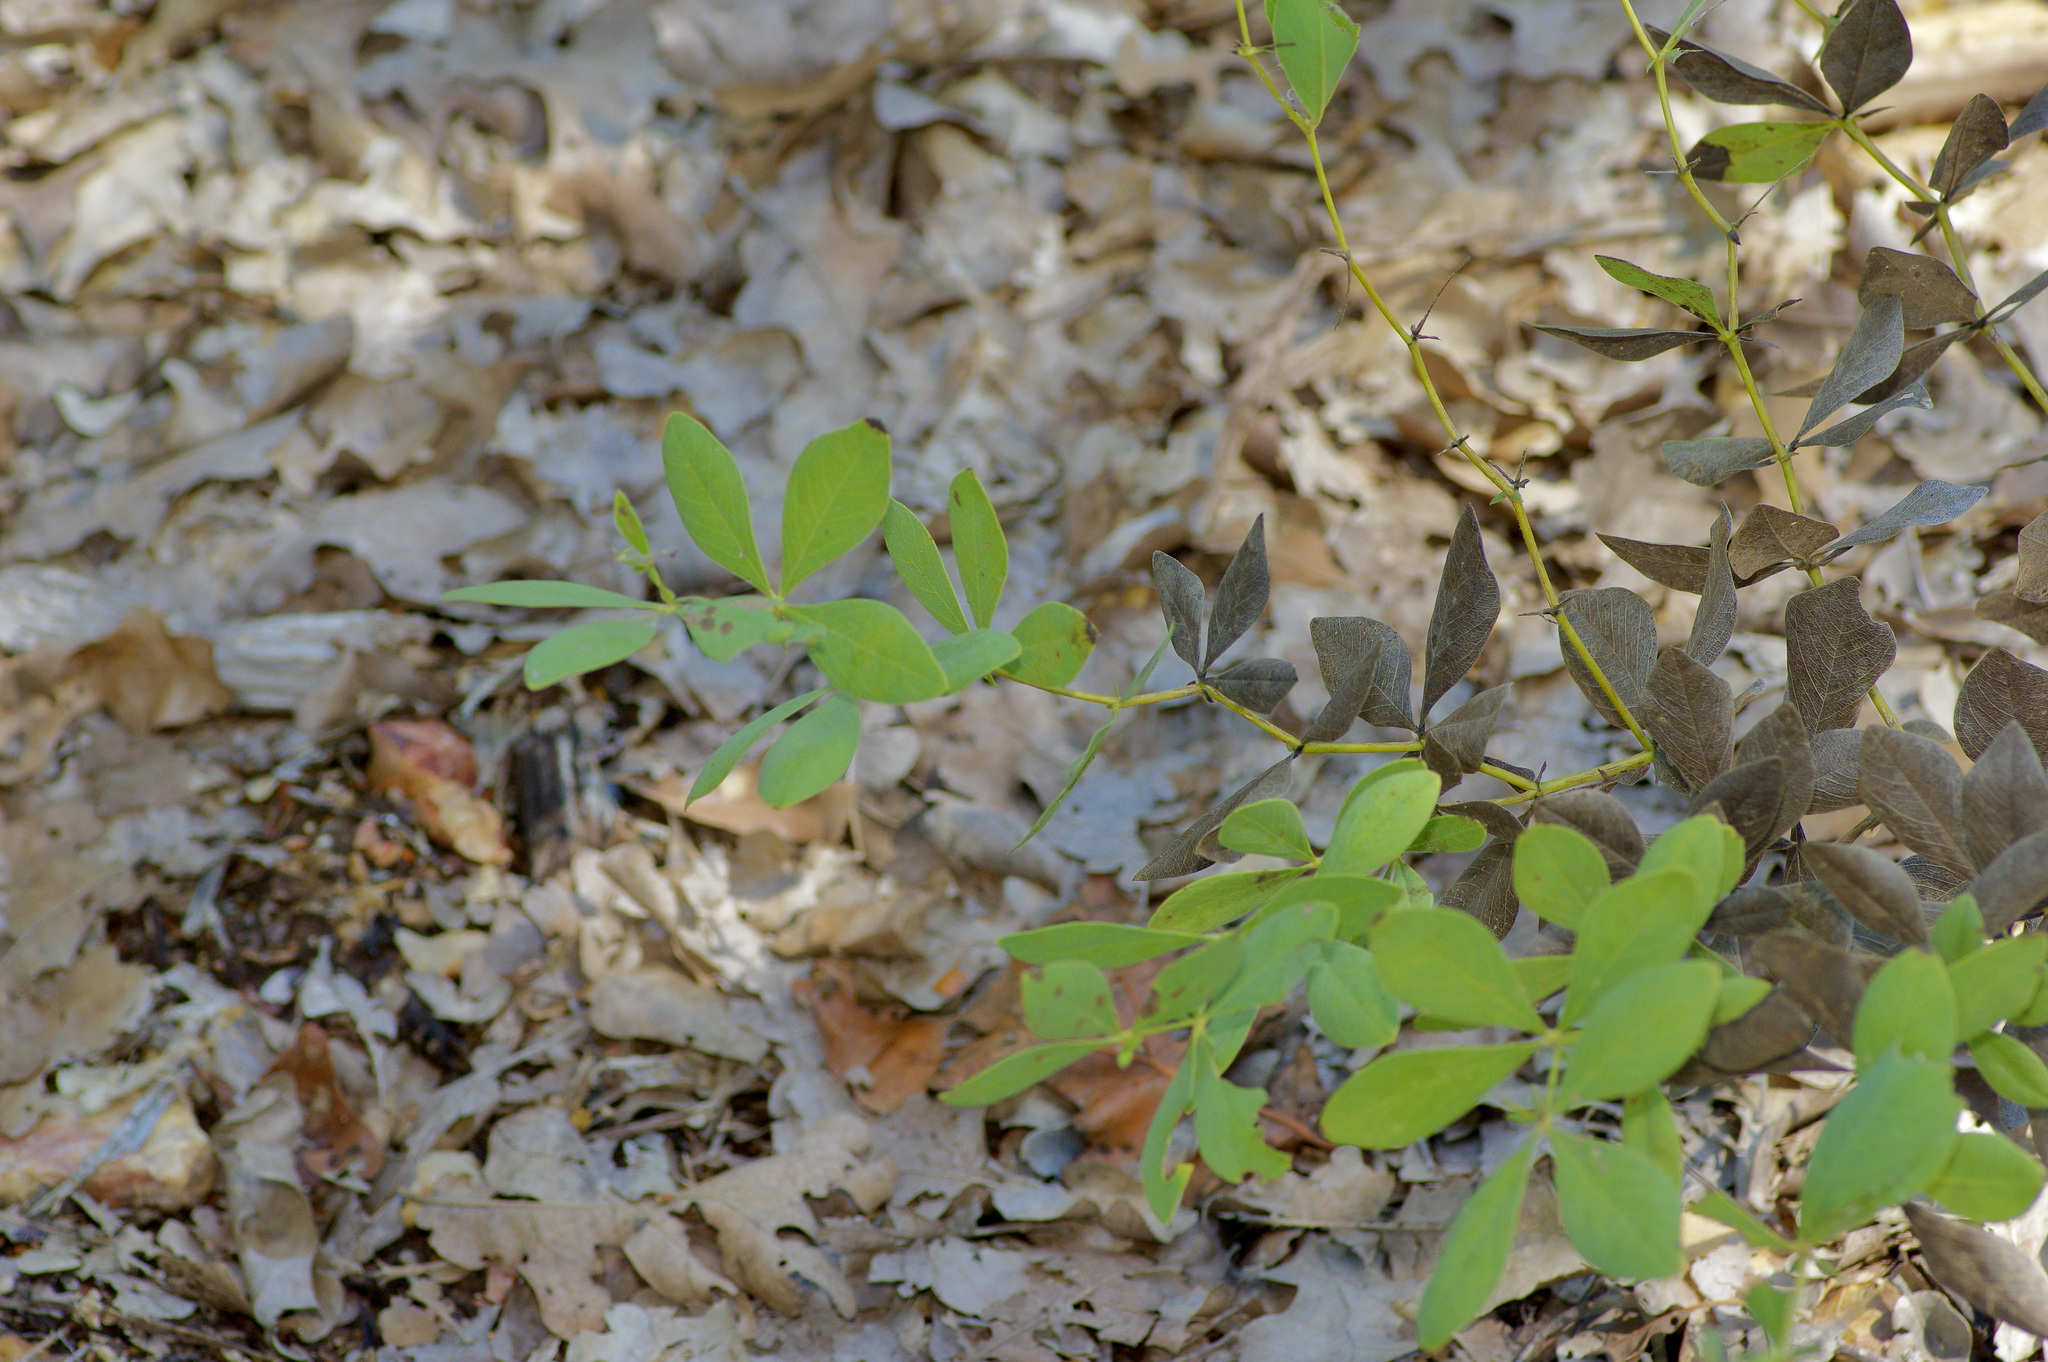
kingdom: Plantae
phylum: Tracheophyta
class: Magnoliopsida
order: Fabales
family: Fabaceae
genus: Baptisia
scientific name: Baptisia bracteata
